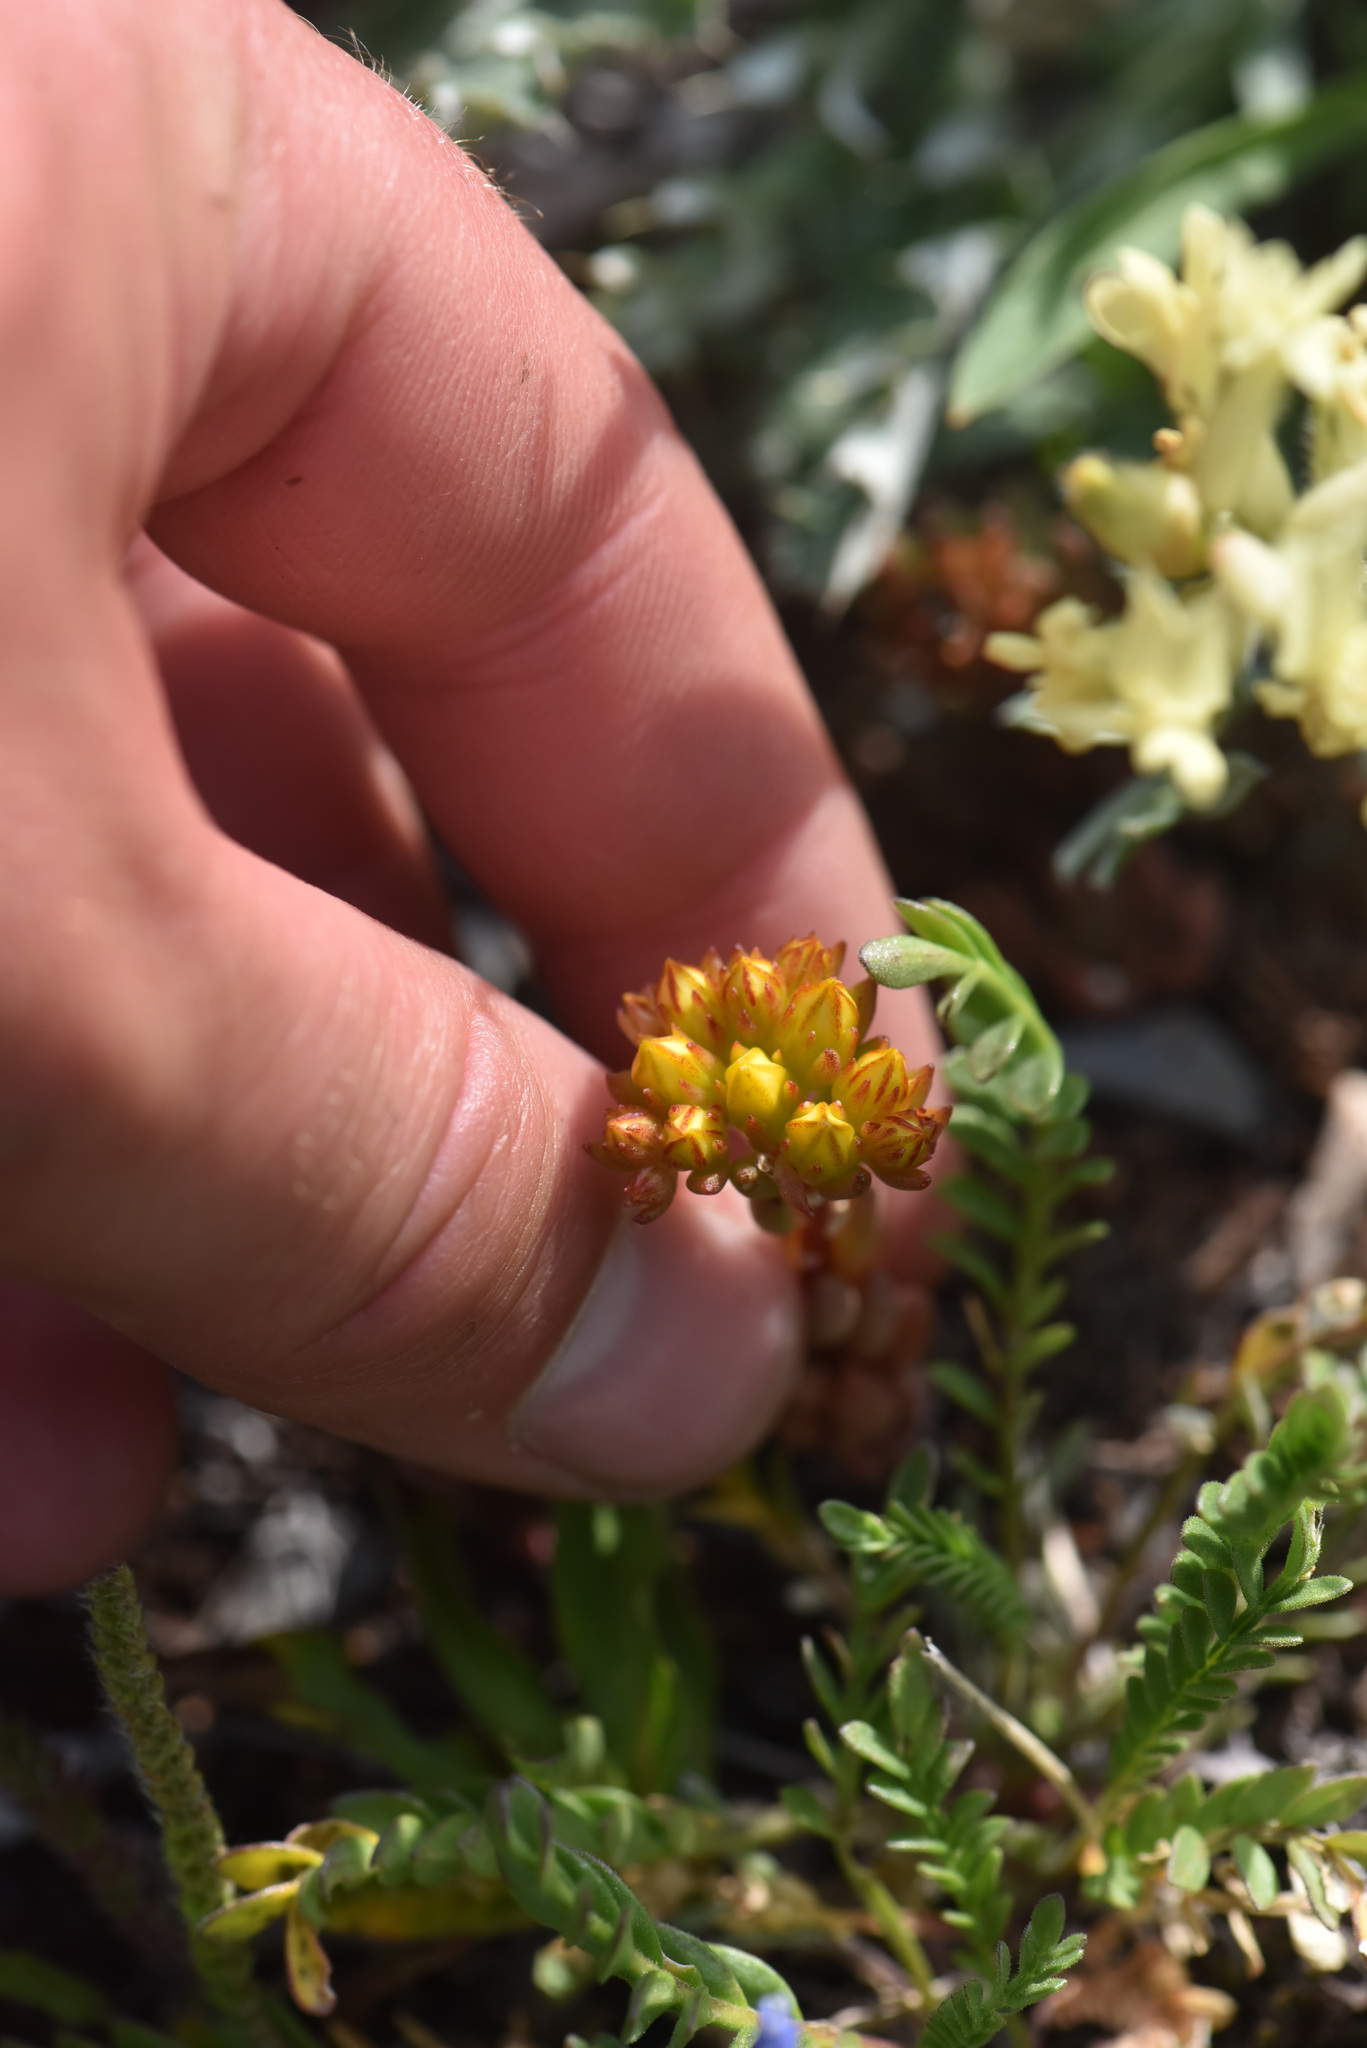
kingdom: Plantae
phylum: Tracheophyta
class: Magnoliopsida
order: Saxifragales
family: Crassulaceae
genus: Sedum
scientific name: Sedum lanceolatum
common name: Common stonecrop
